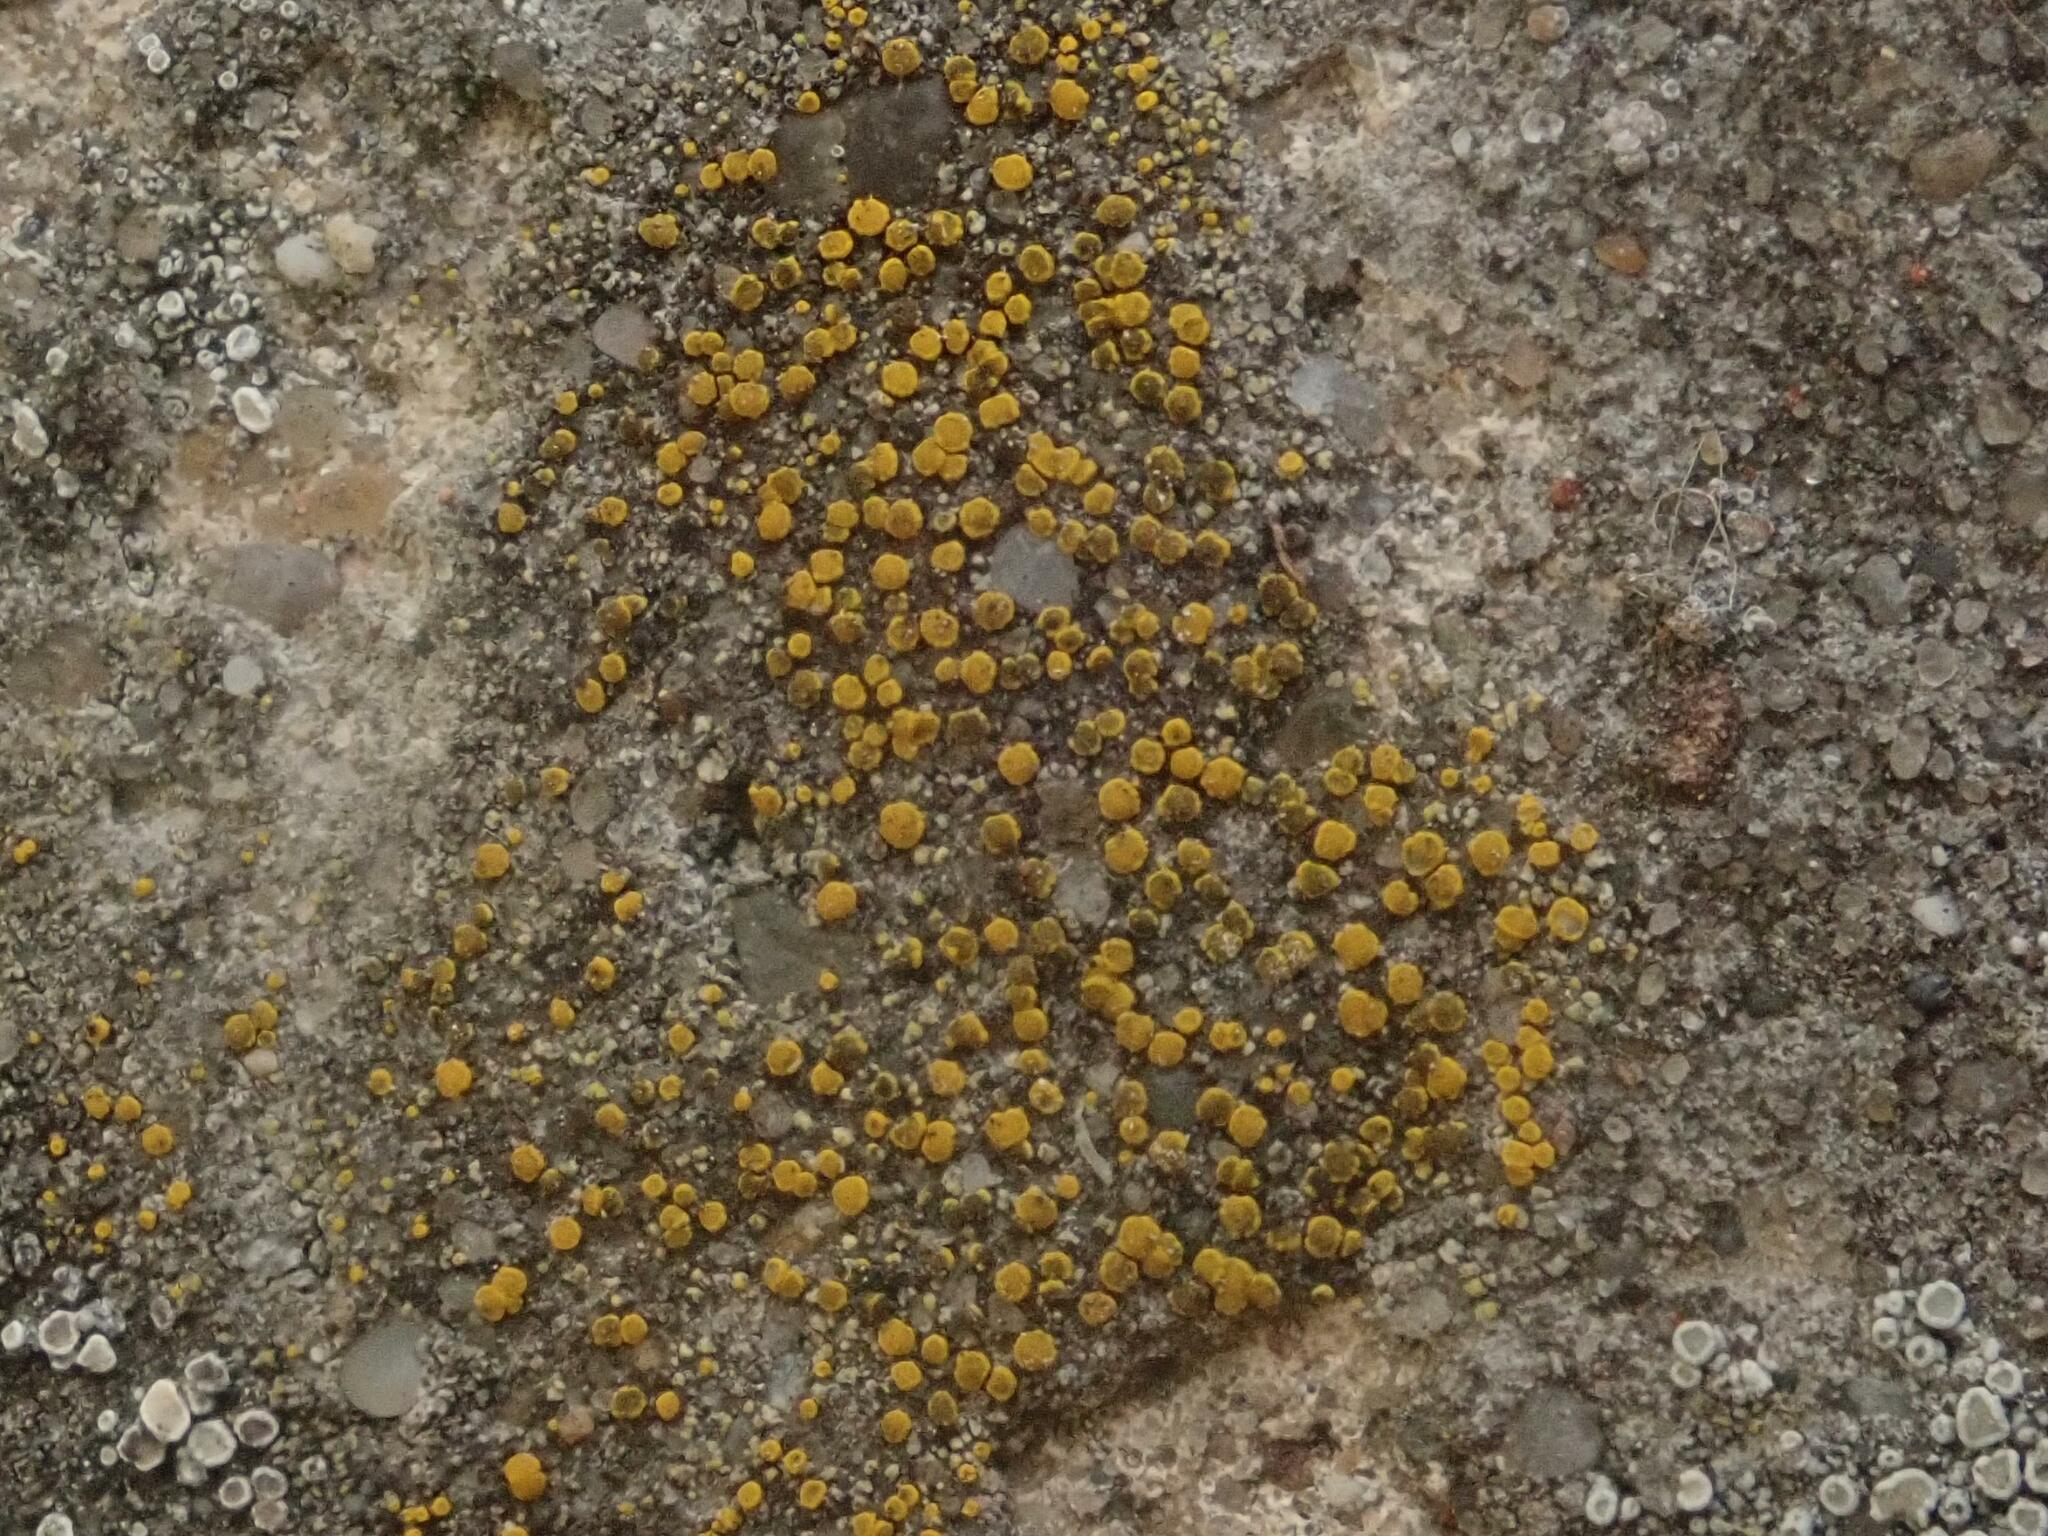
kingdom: Fungi
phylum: Ascomycota
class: Candelariomycetes
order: Candelariales
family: Candelariaceae
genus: Candelariella
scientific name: Candelariella aurella
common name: Hidden goldspeck lichen
